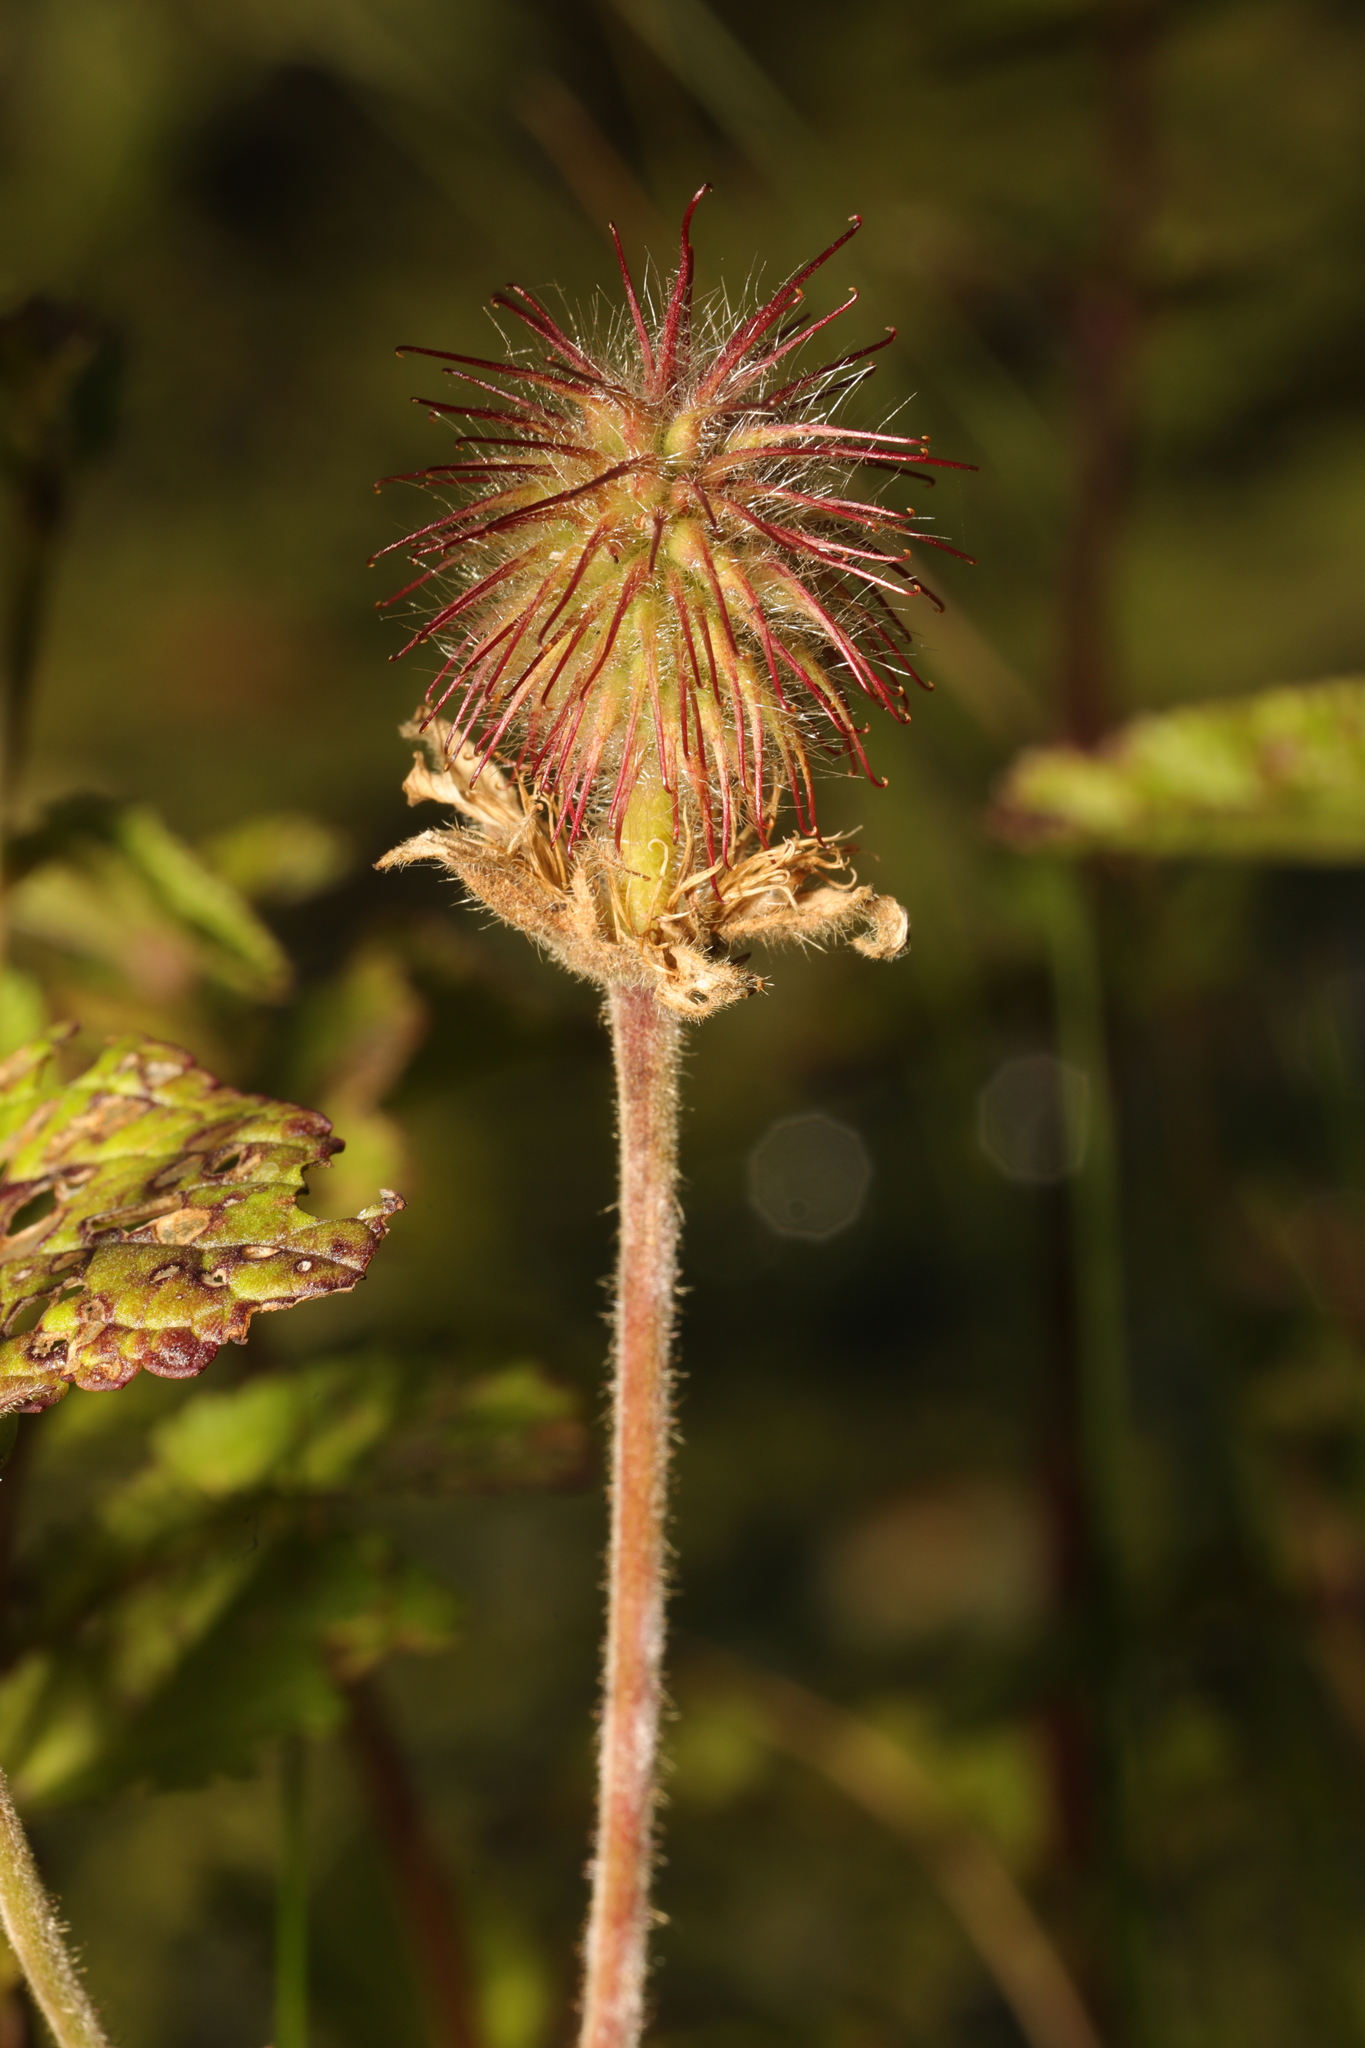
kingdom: Plantae
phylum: Tracheophyta
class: Magnoliopsida
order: Rosales
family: Rosaceae
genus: Geum
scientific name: Geum rivale
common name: Water avens
